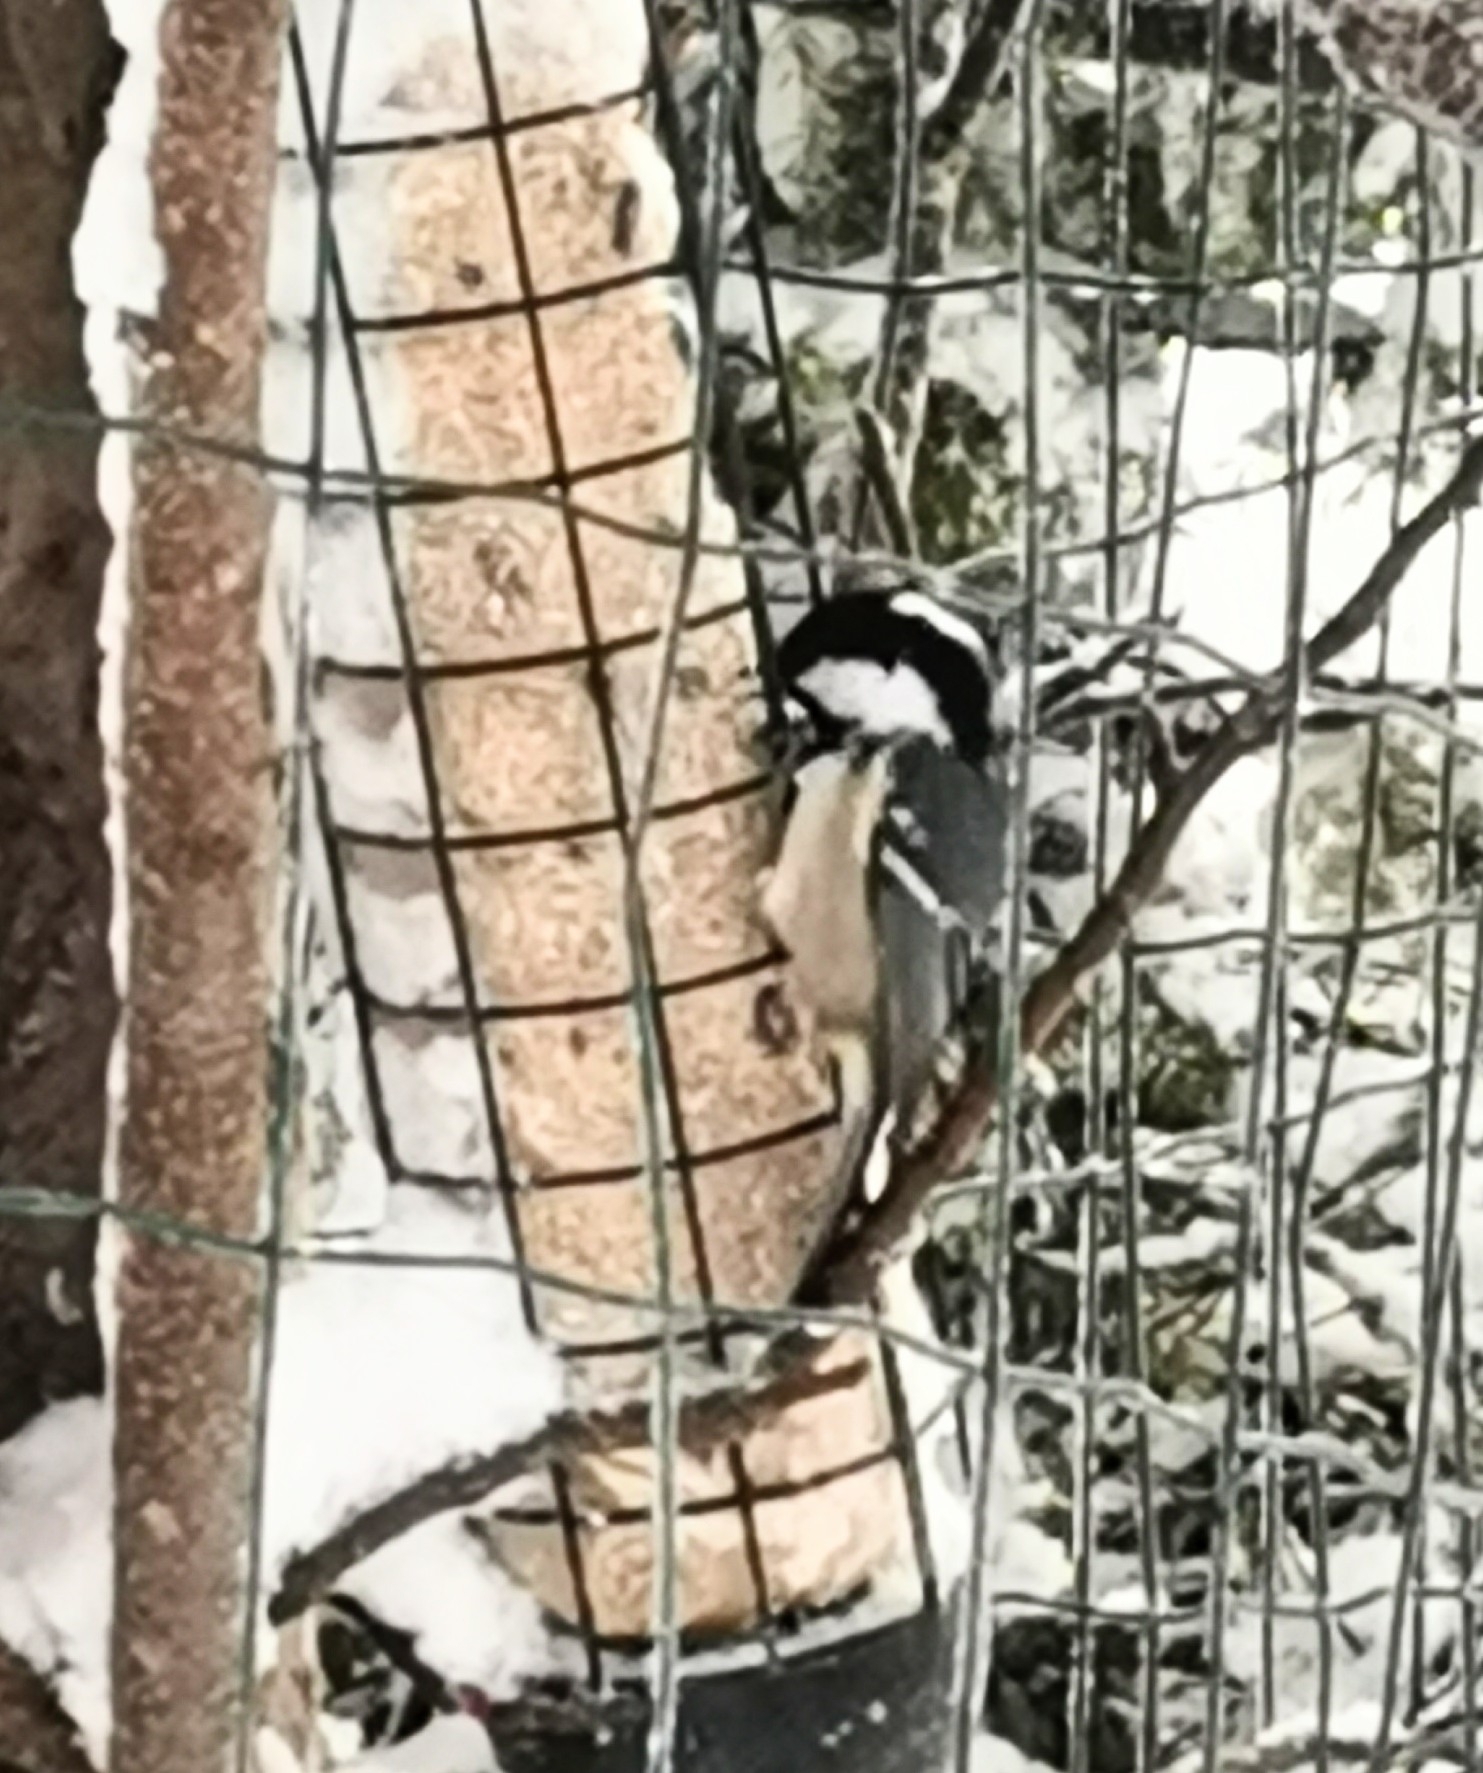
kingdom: Animalia
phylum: Chordata
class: Aves
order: Passeriformes
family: Paridae
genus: Periparus
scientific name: Periparus ater
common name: Coal tit
